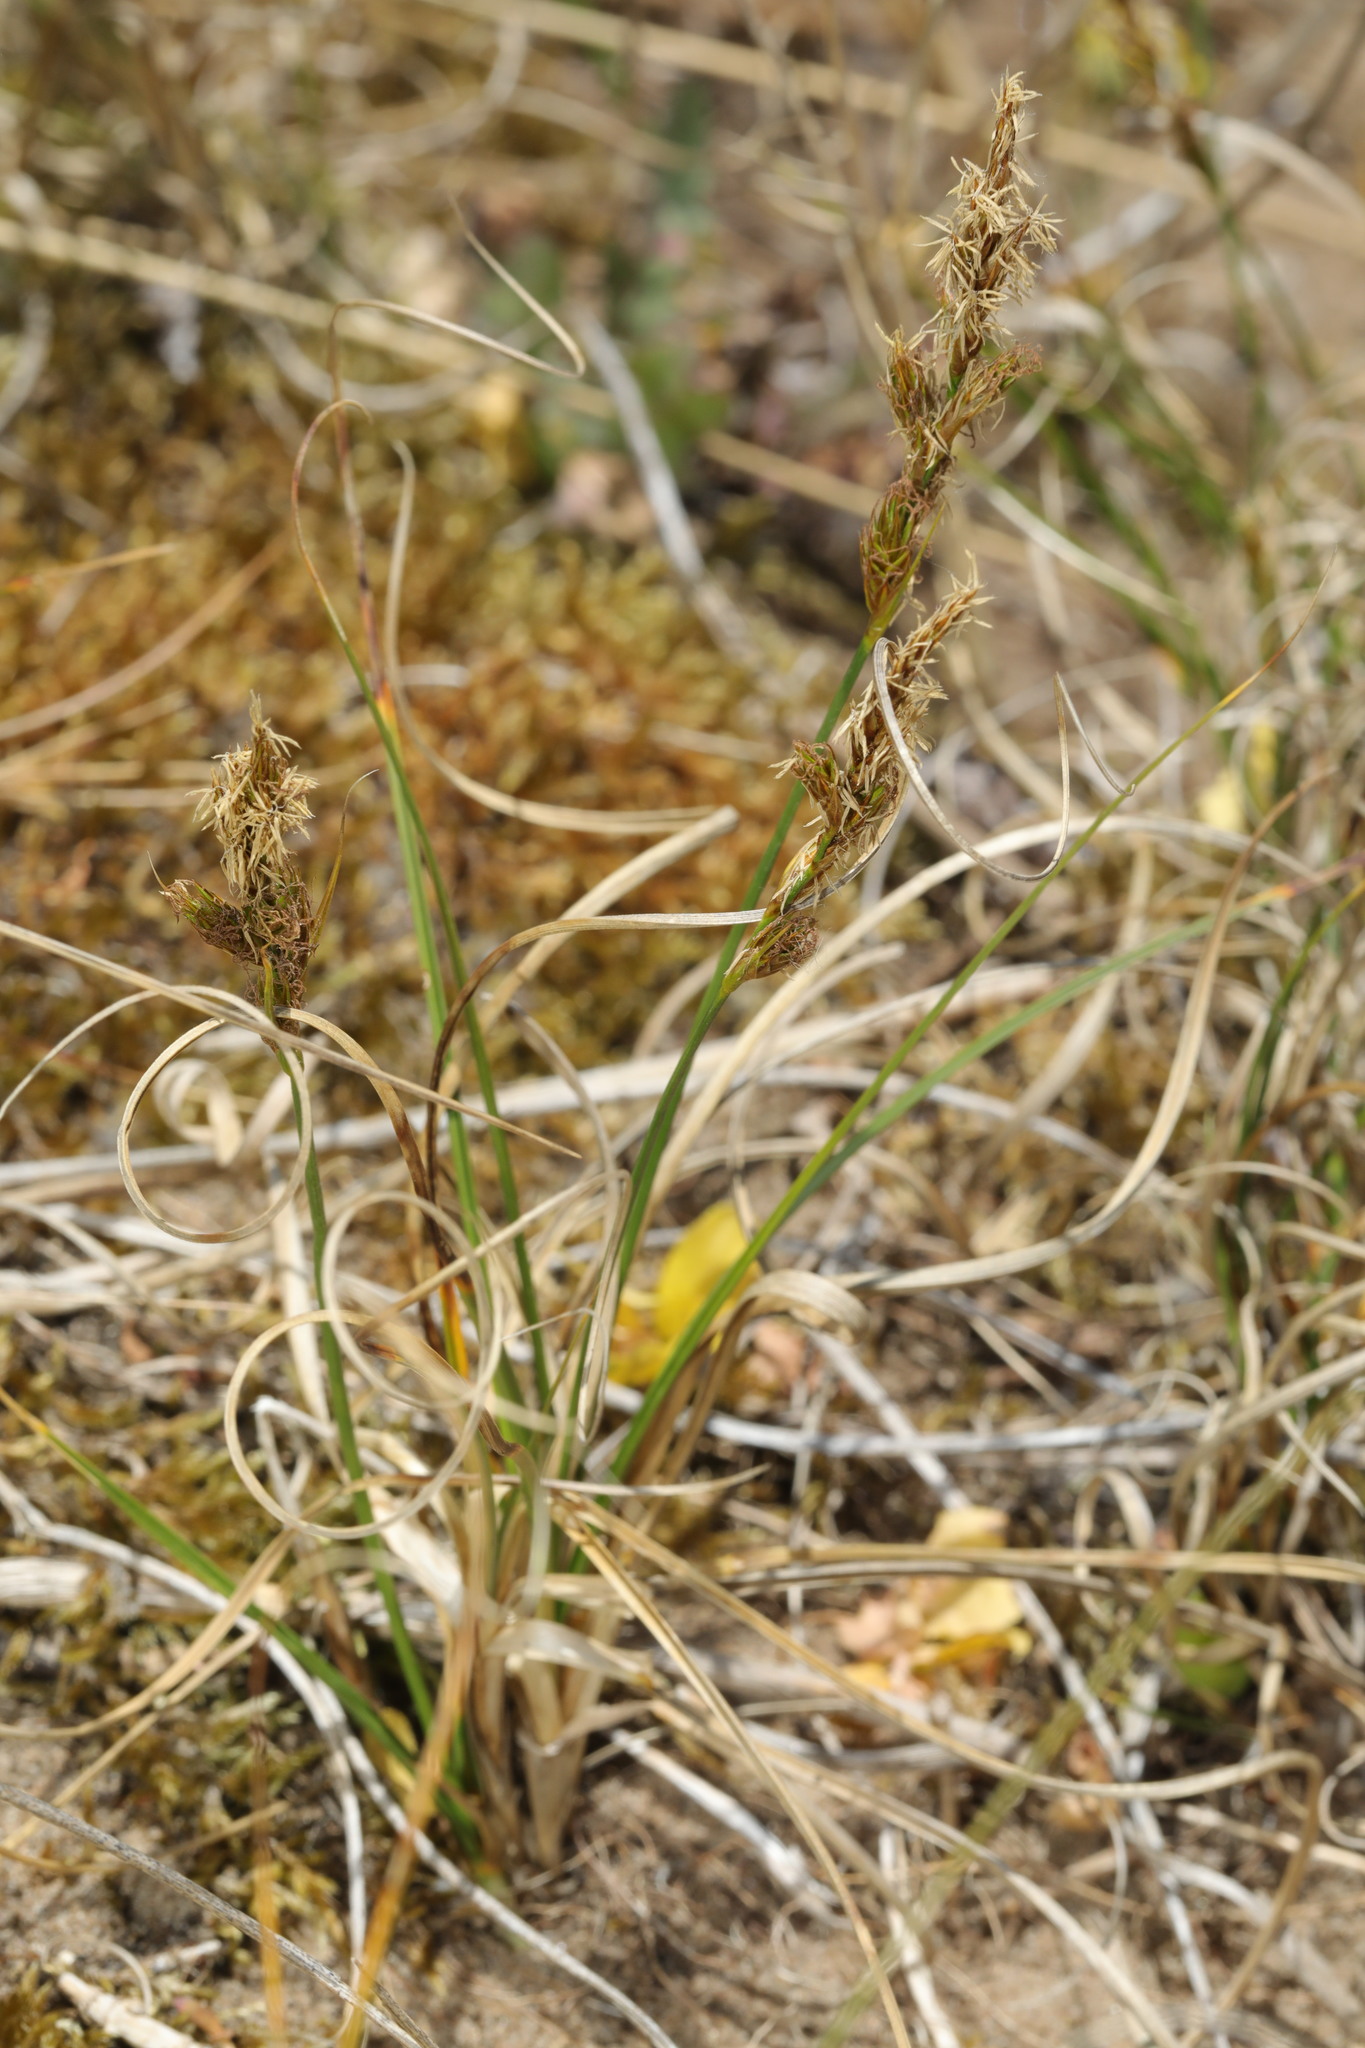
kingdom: Plantae
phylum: Tracheophyta
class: Liliopsida
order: Poales
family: Cyperaceae
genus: Carex
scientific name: Carex arenaria
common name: Sand sedge
